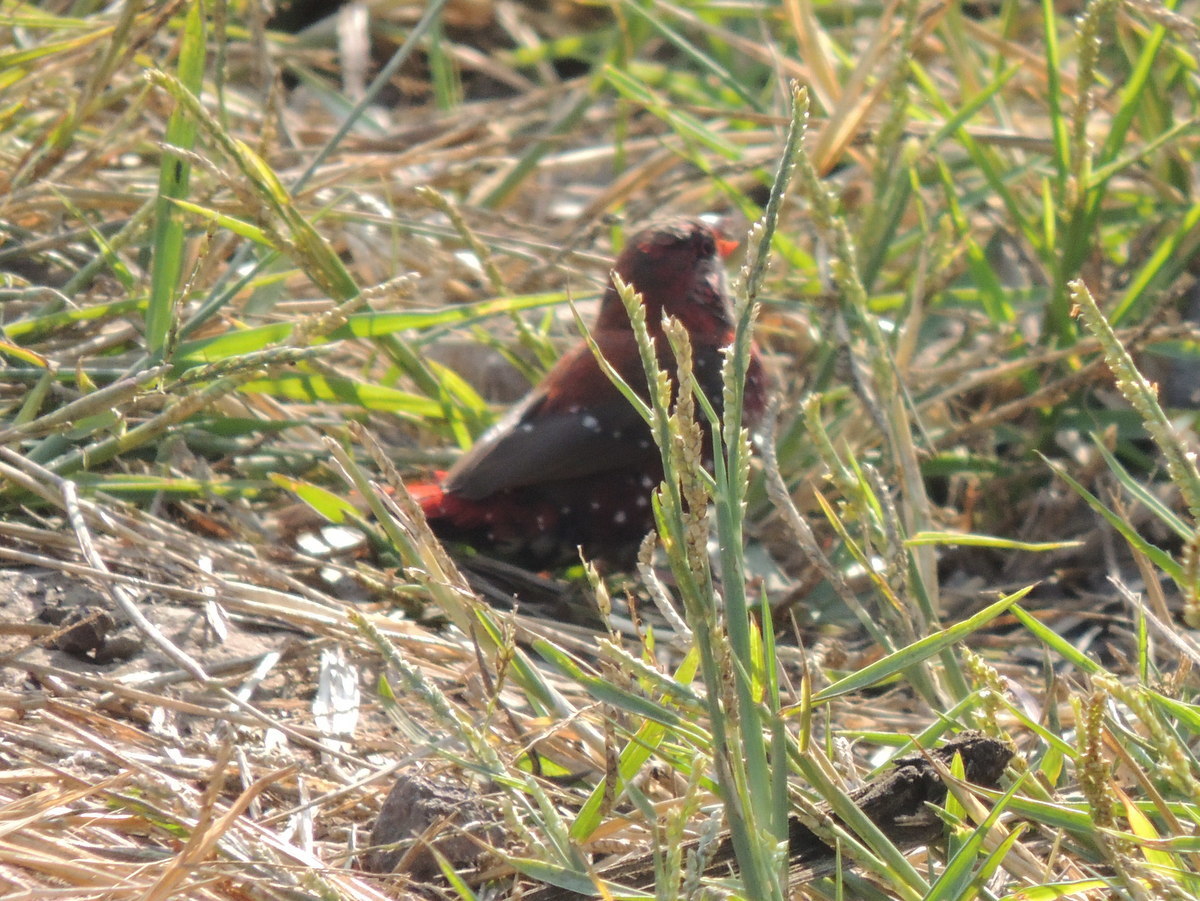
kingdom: Animalia
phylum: Chordata
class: Aves
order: Passeriformes
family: Estrildidae
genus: Amandava
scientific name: Amandava amandava
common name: Red avadavat
